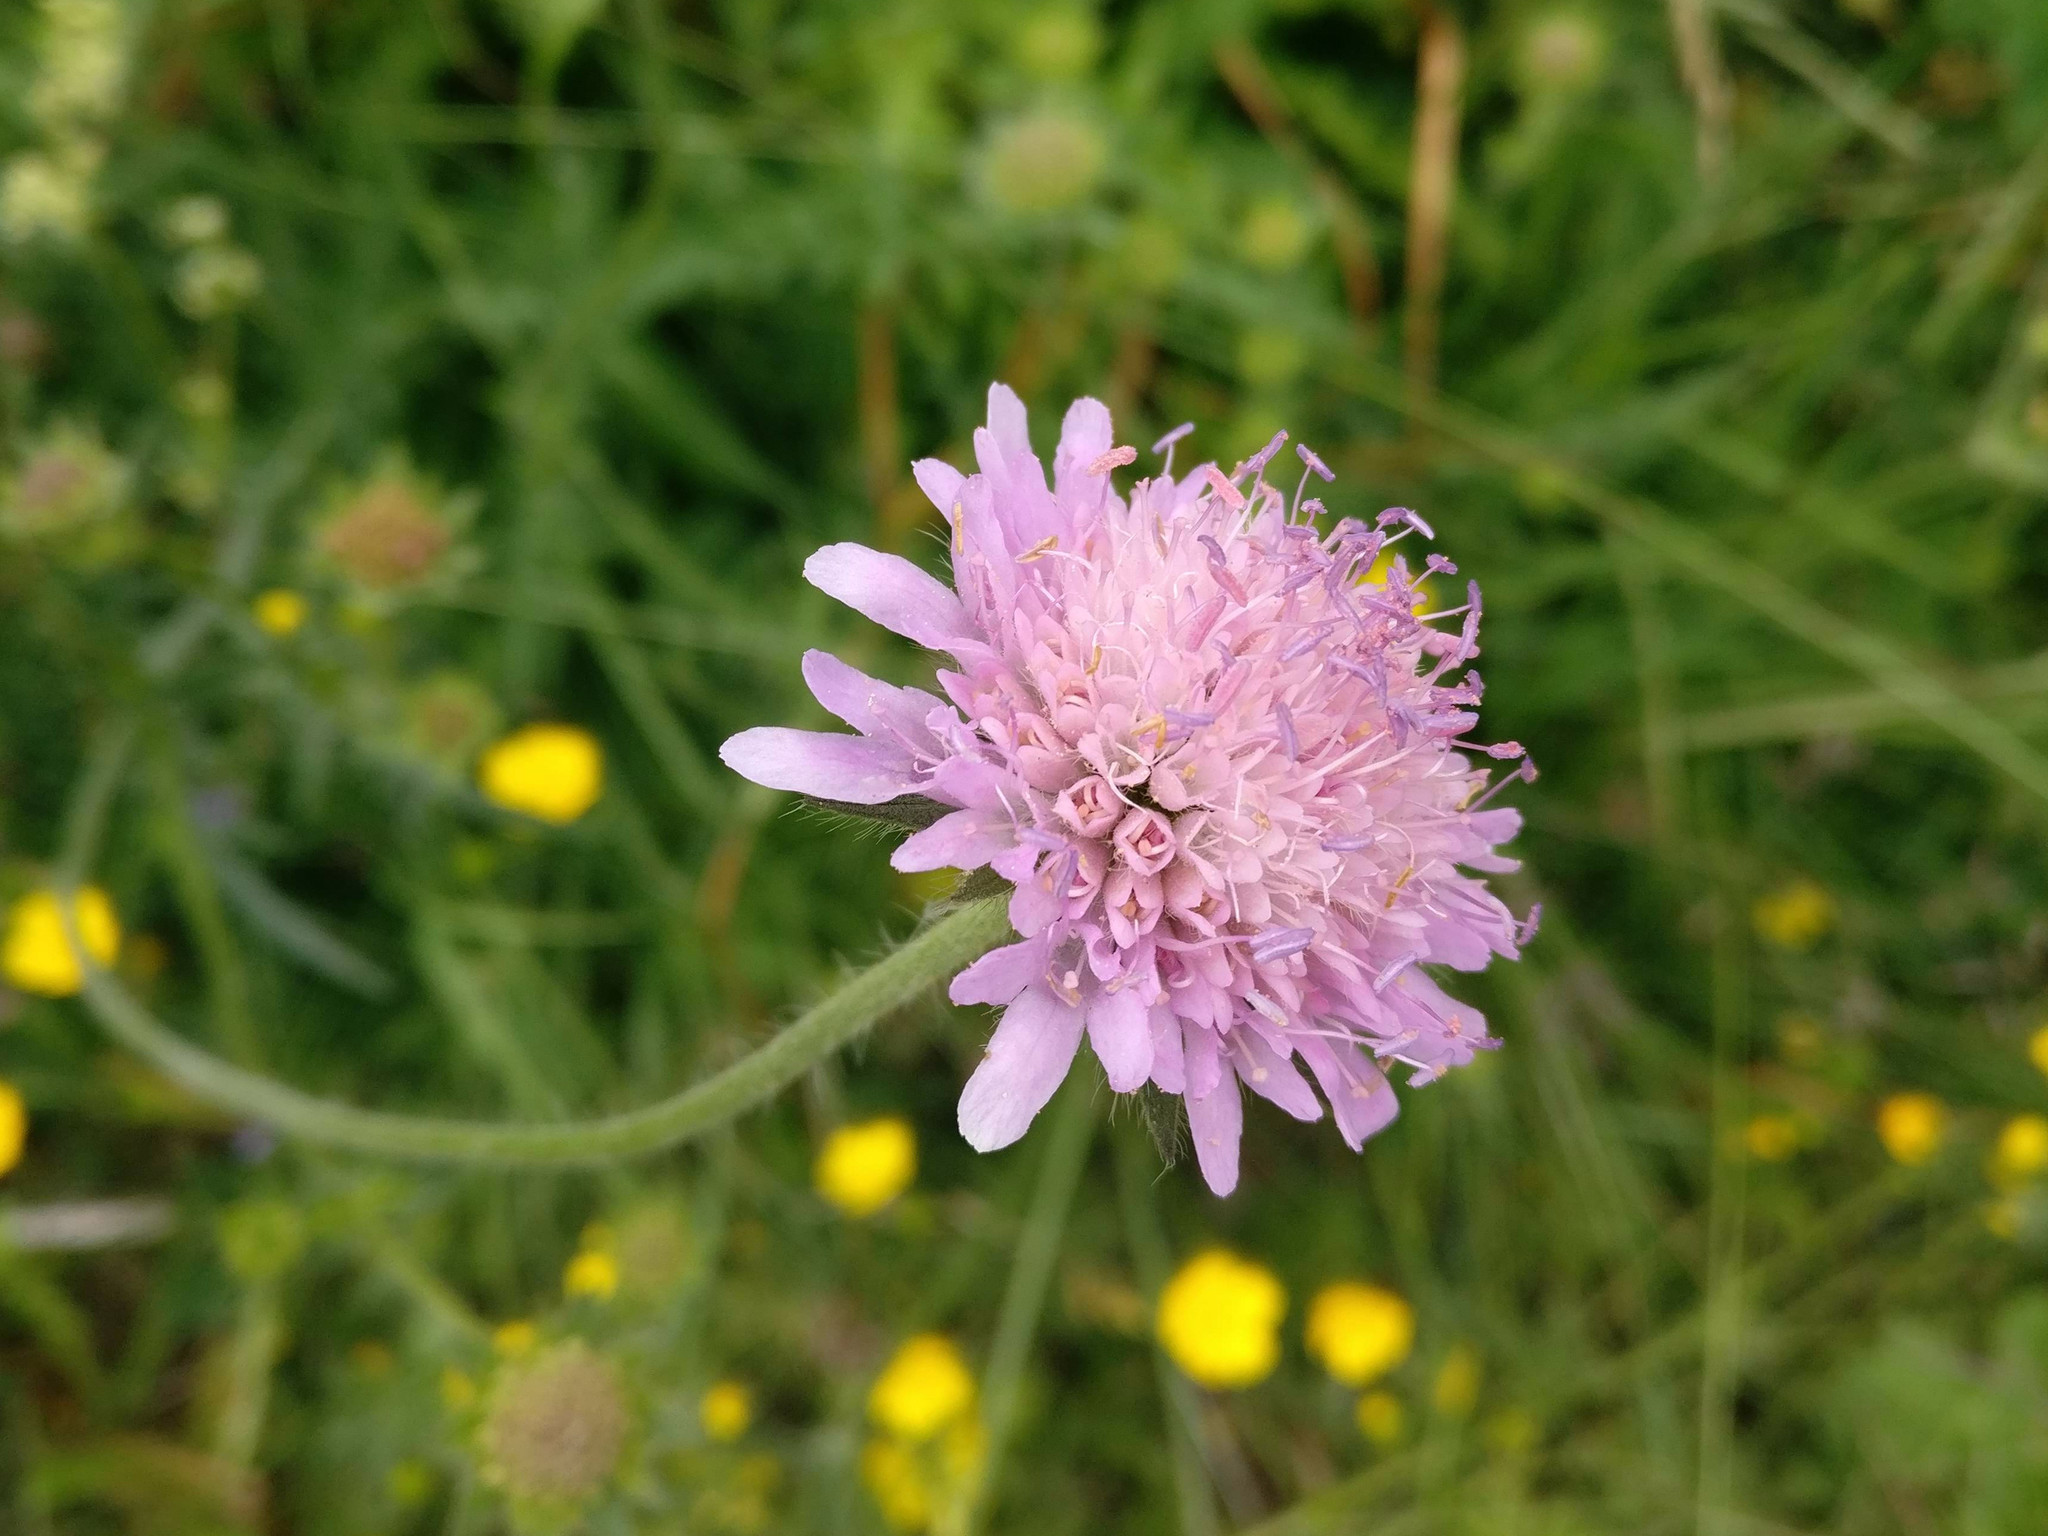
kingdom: Plantae
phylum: Tracheophyta
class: Magnoliopsida
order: Dipsacales
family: Caprifoliaceae
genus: Knautia
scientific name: Knautia arvensis
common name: Field scabiosa
